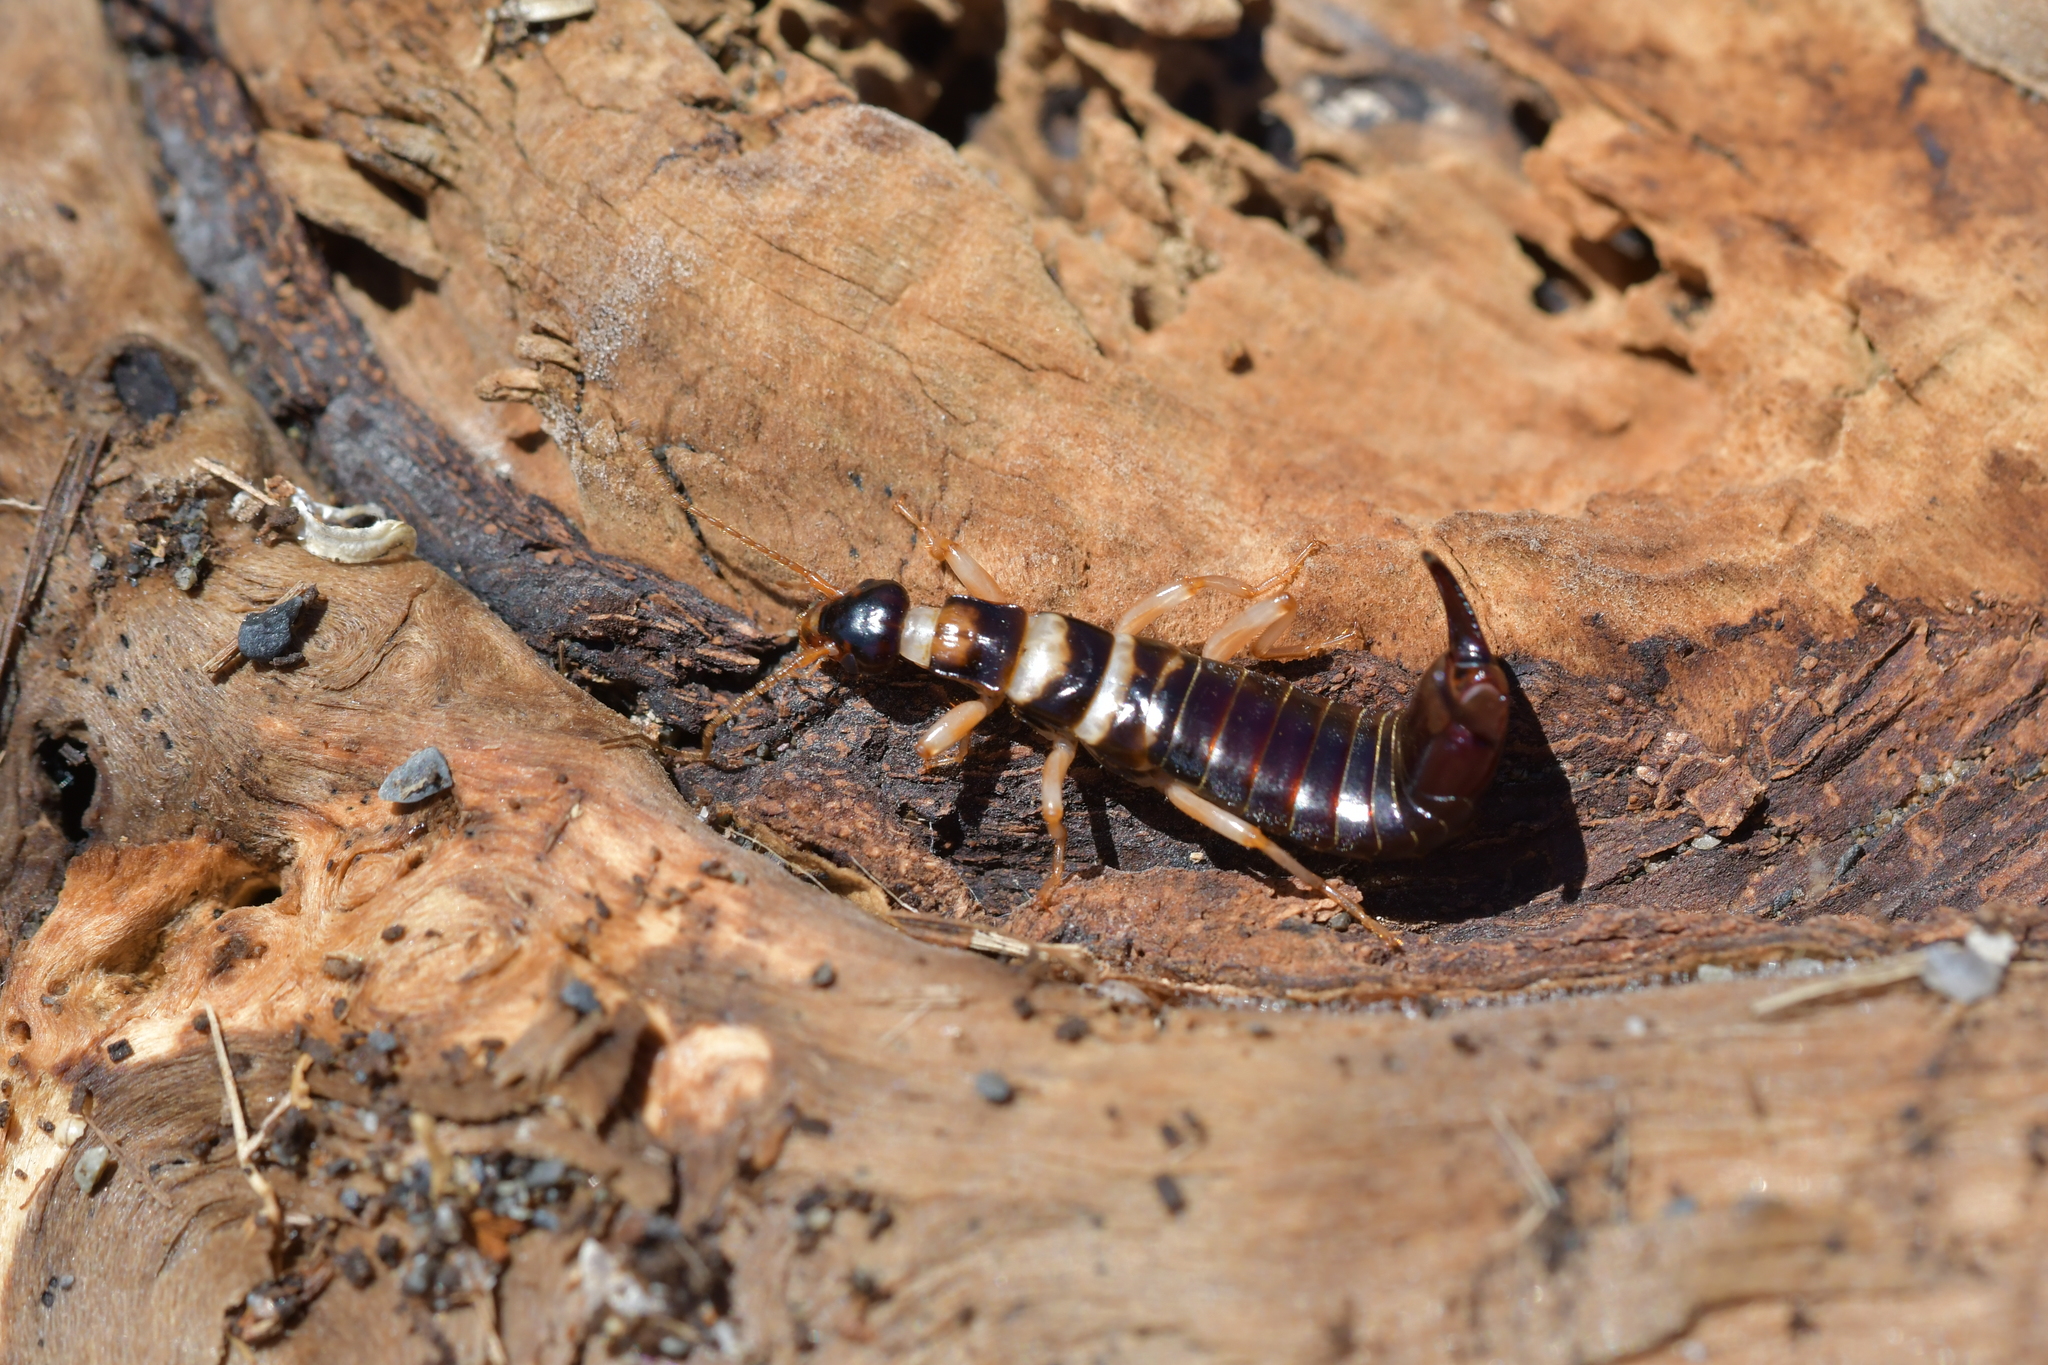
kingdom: Animalia
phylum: Arthropoda
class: Insecta
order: Dermaptera
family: Anisolabididae
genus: Anisolabis
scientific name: Anisolabis littorea
